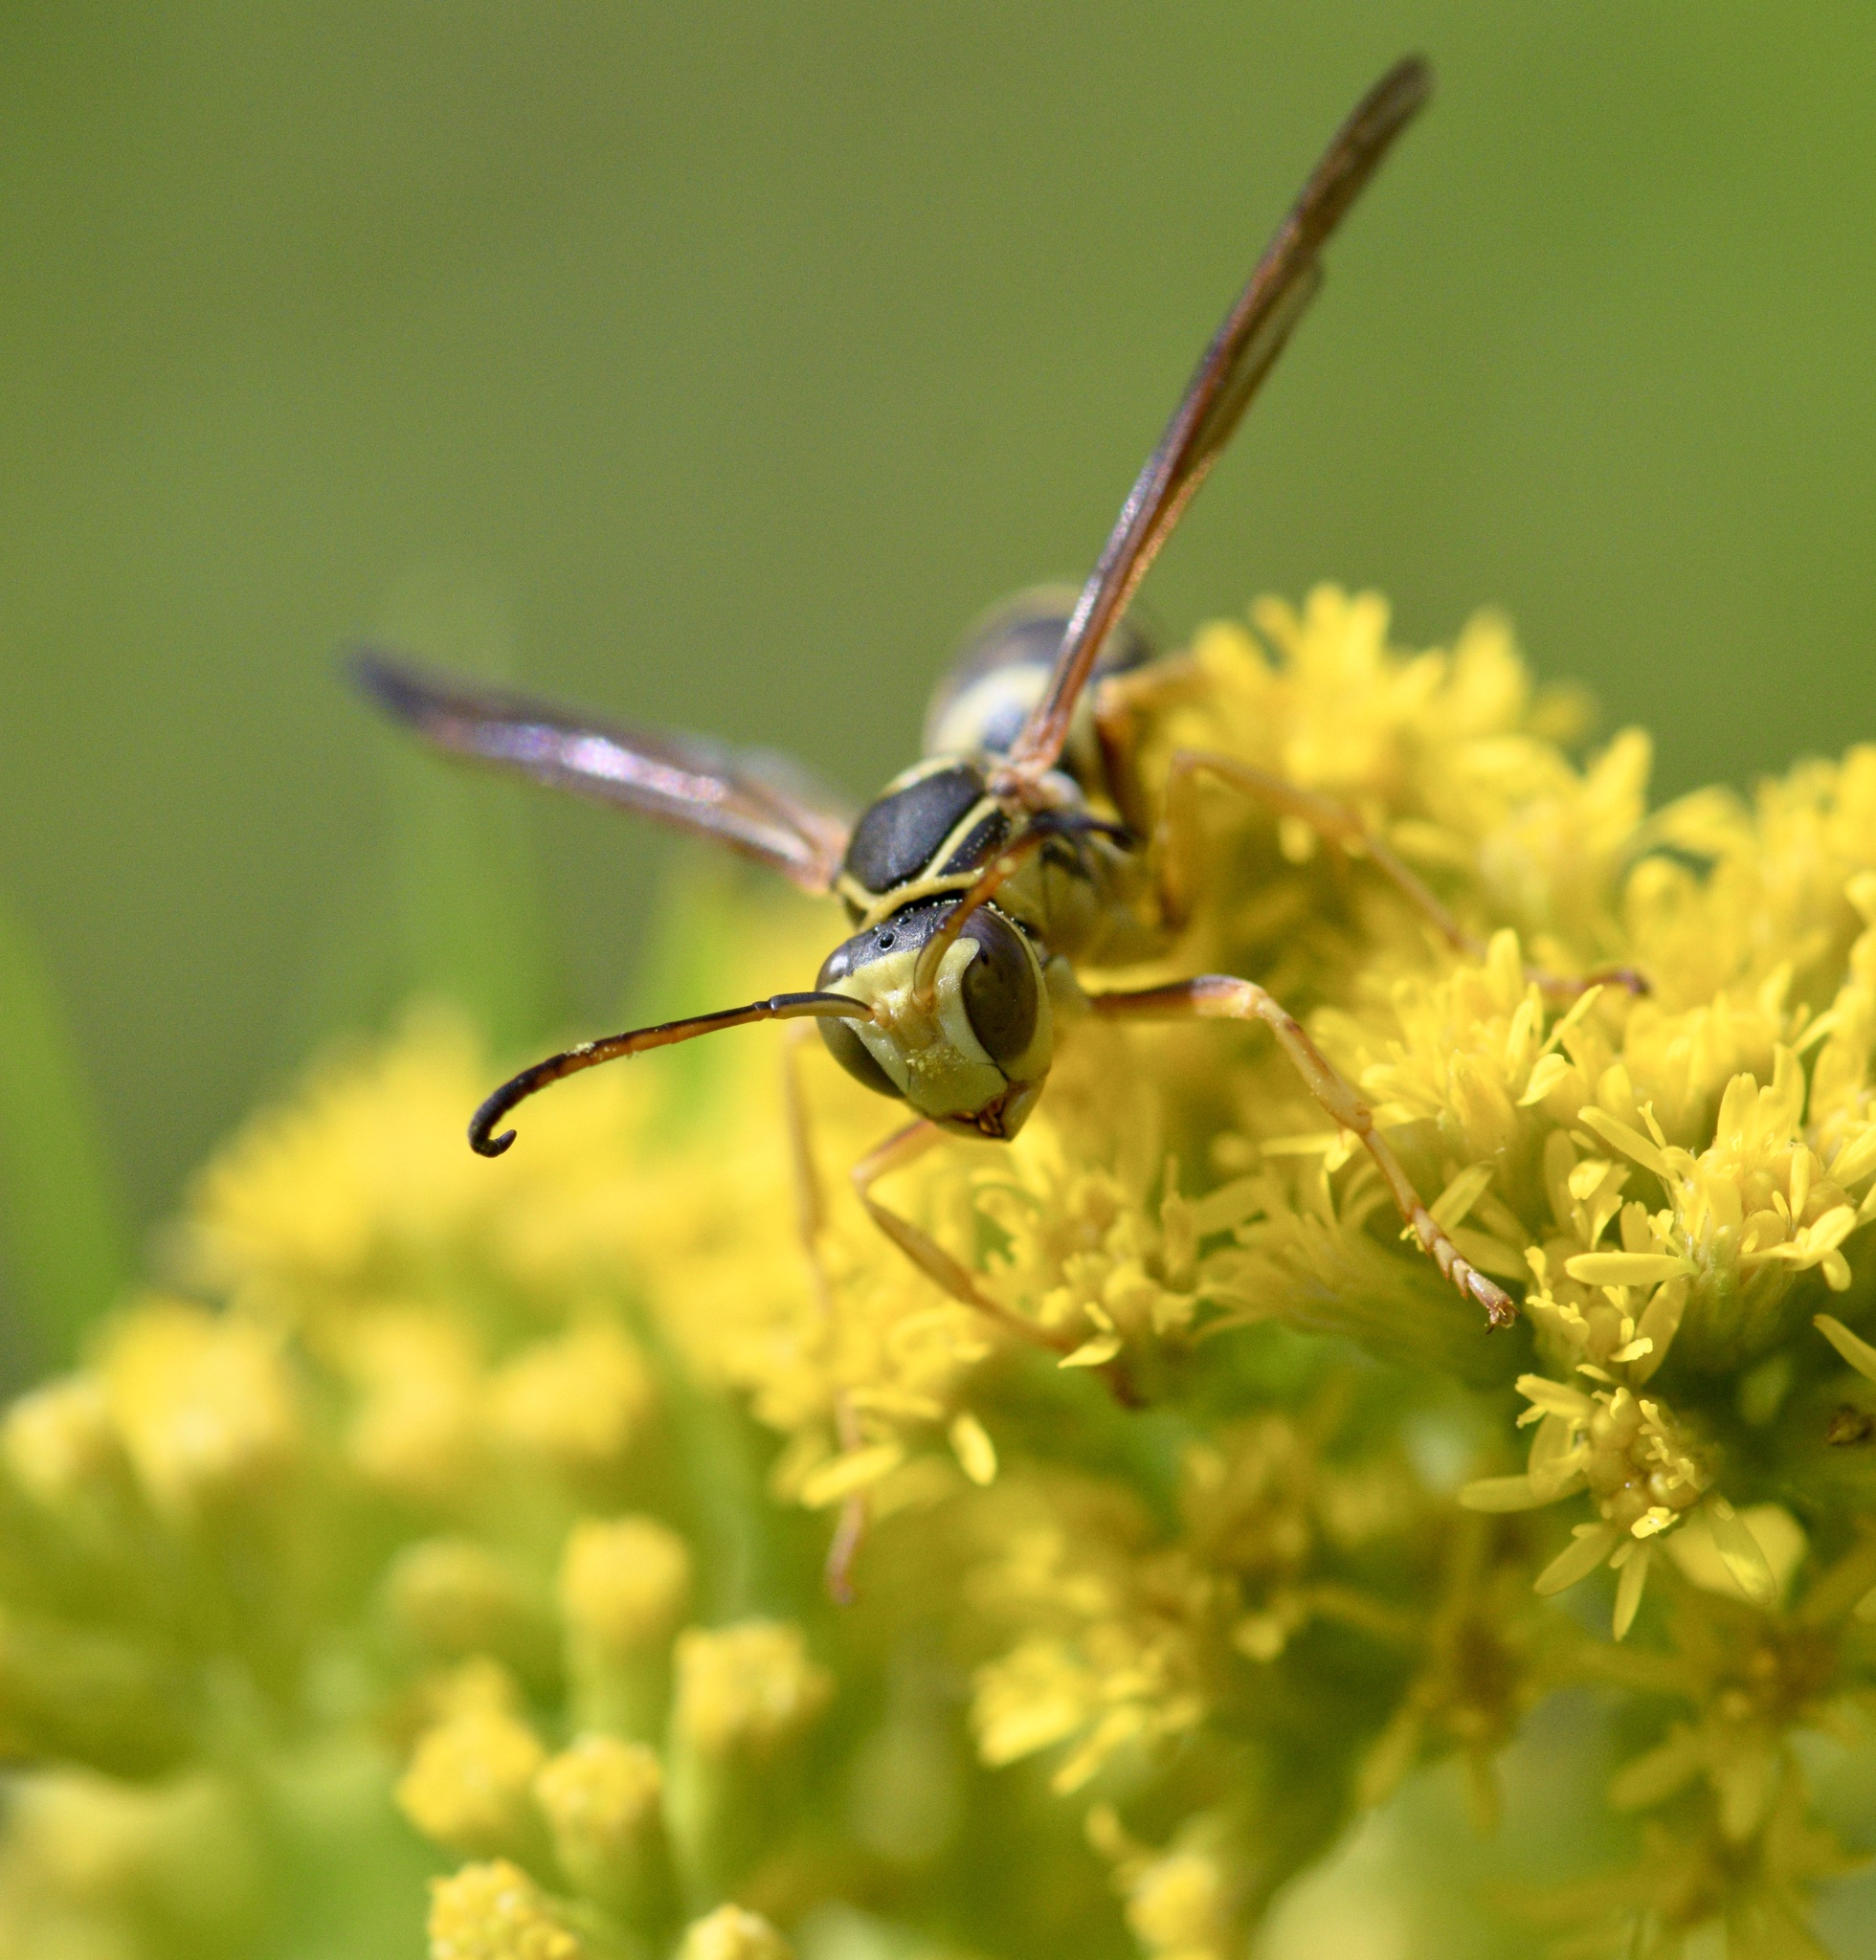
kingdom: Animalia
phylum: Arthropoda
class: Insecta
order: Hymenoptera
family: Eumenidae
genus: Polistes
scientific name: Polistes fuscatus
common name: Dark paper wasp
